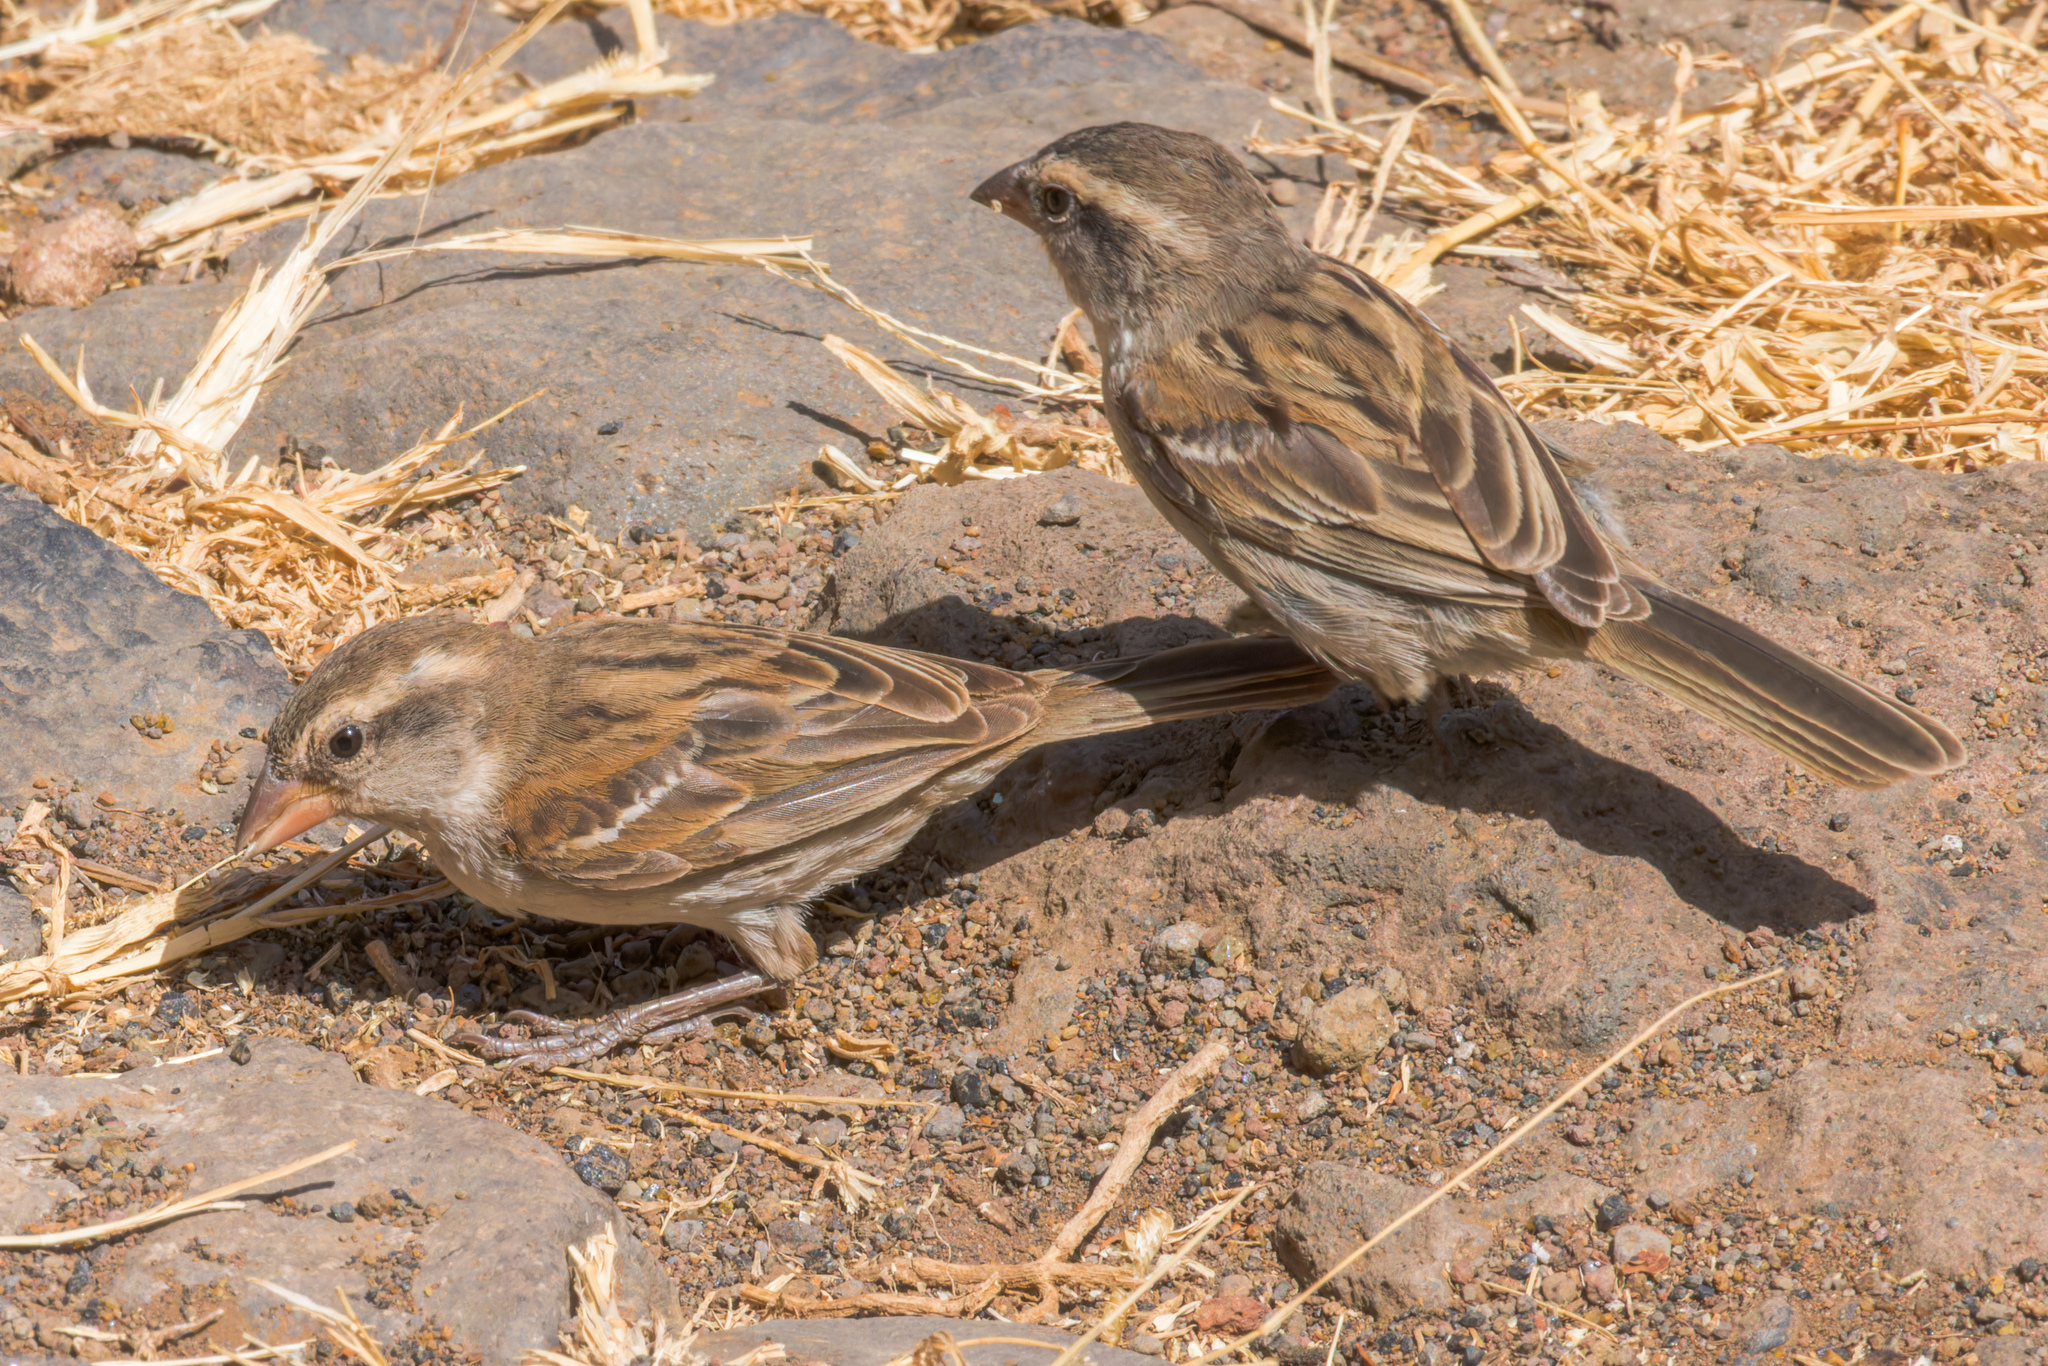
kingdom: Animalia
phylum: Chordata
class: Aves
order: Passeriformes
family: Passeridae
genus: Passer
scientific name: Passer iagoensis
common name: Iago sparrow
